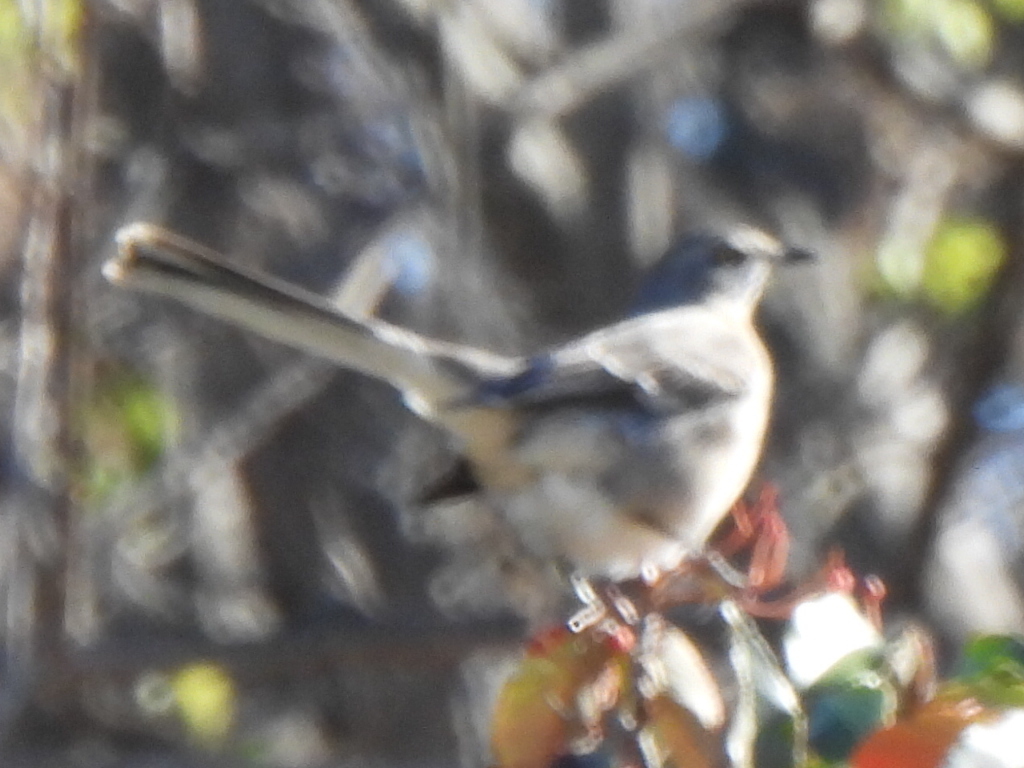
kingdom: Animalia
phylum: Chordata
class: Aves
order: Passeriformes
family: Mimidae
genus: Mimus
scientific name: Mimus polyglottos
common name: Northern mockingbird
